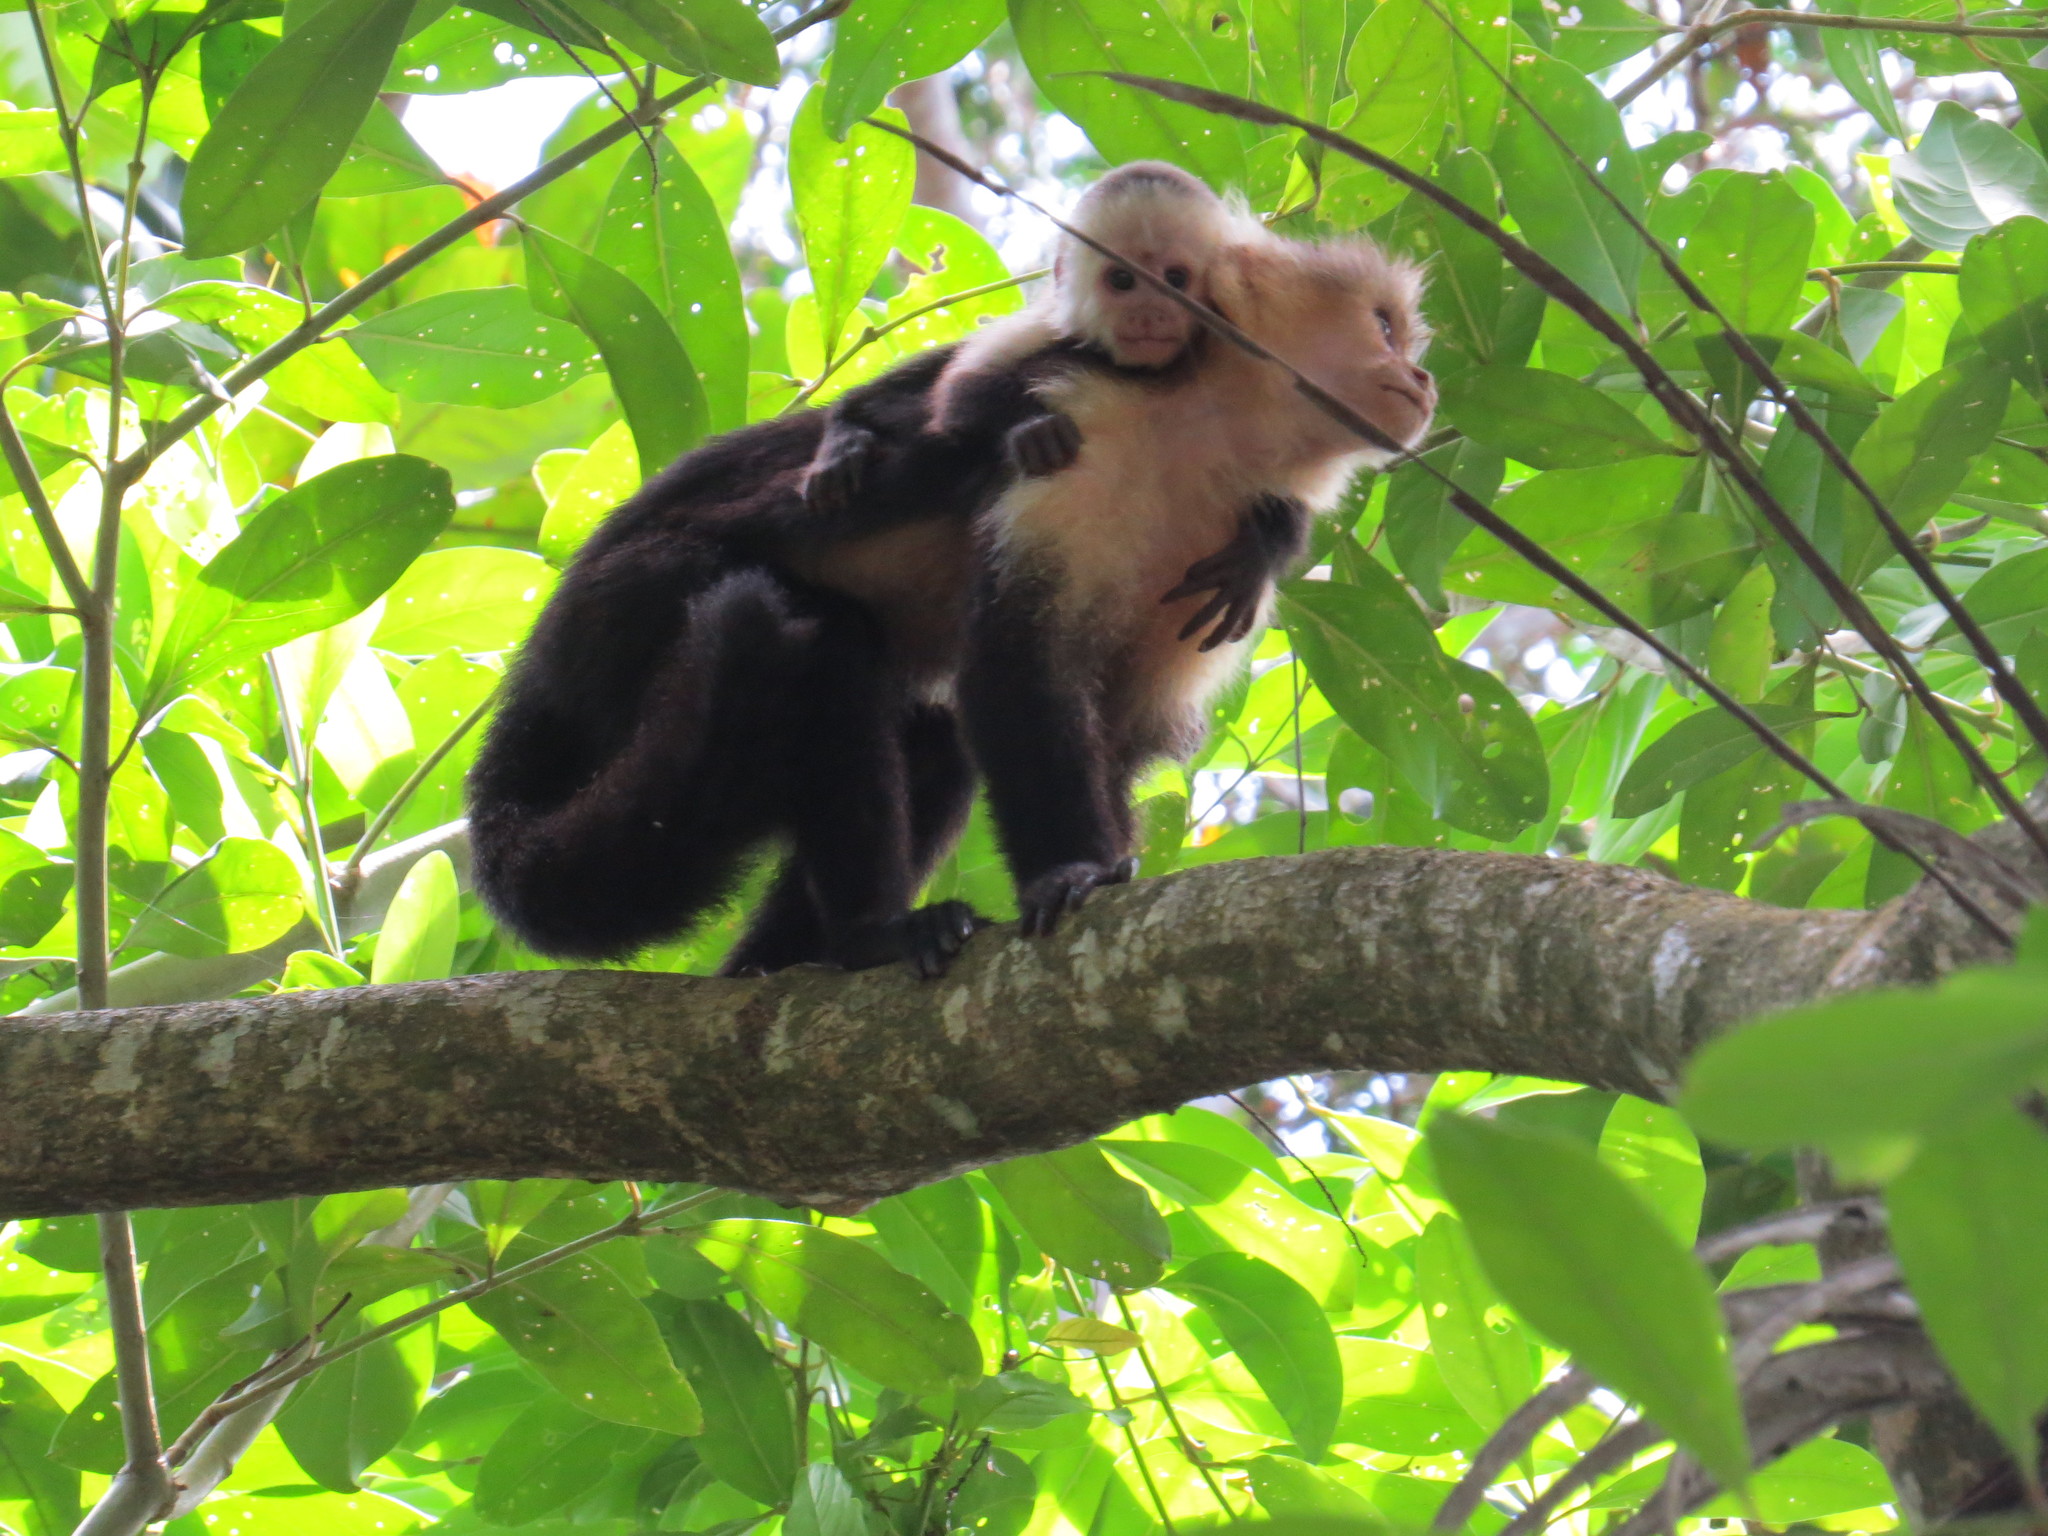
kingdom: Animalia
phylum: Chordata
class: Mammalia
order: Primates
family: Cebidae
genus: Cebus
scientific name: Cebus imitator
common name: Panamanian white-faced capuchin
